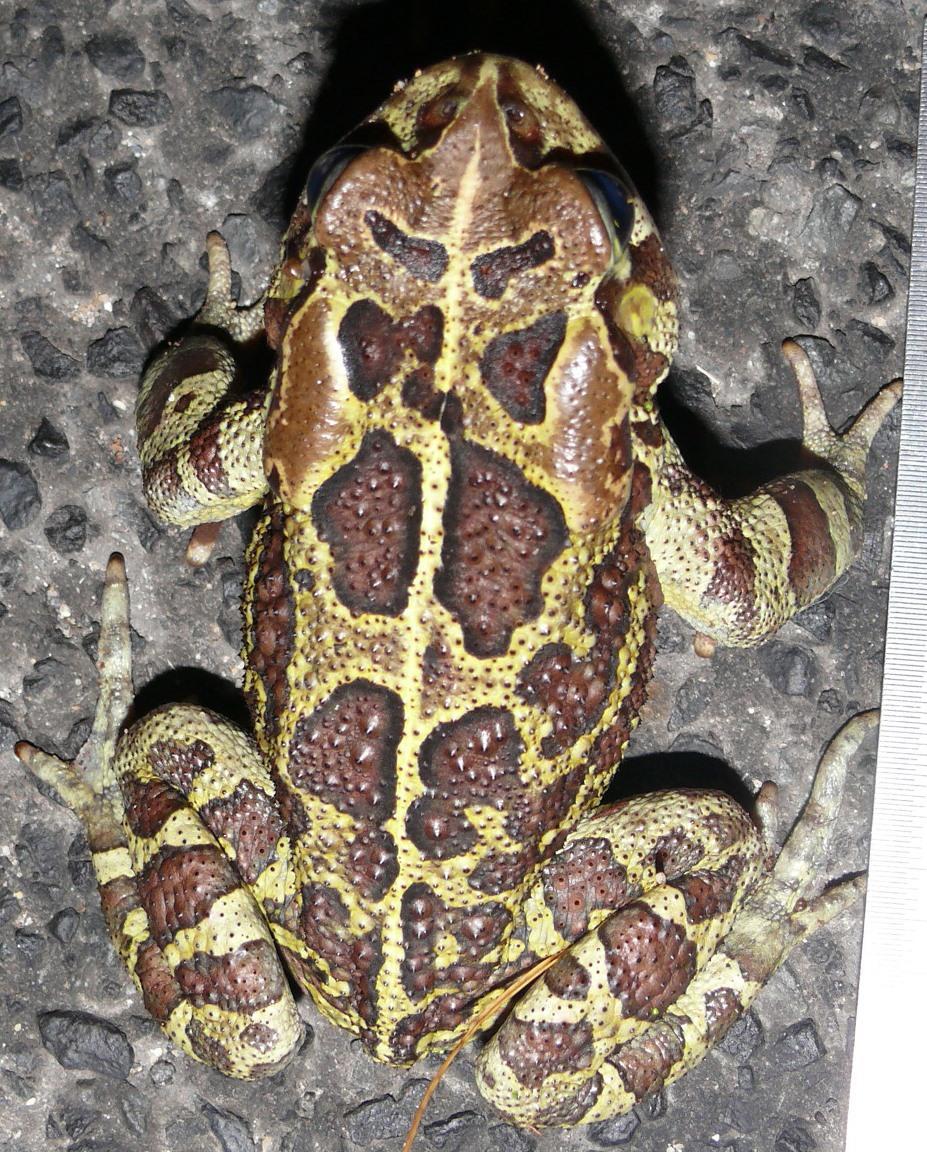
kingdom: Animalia
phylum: Chordata
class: Amphibia
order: Anura
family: Bufonidae
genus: Sclerophrys
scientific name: Sclerophrys pantherina
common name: Panther toad
